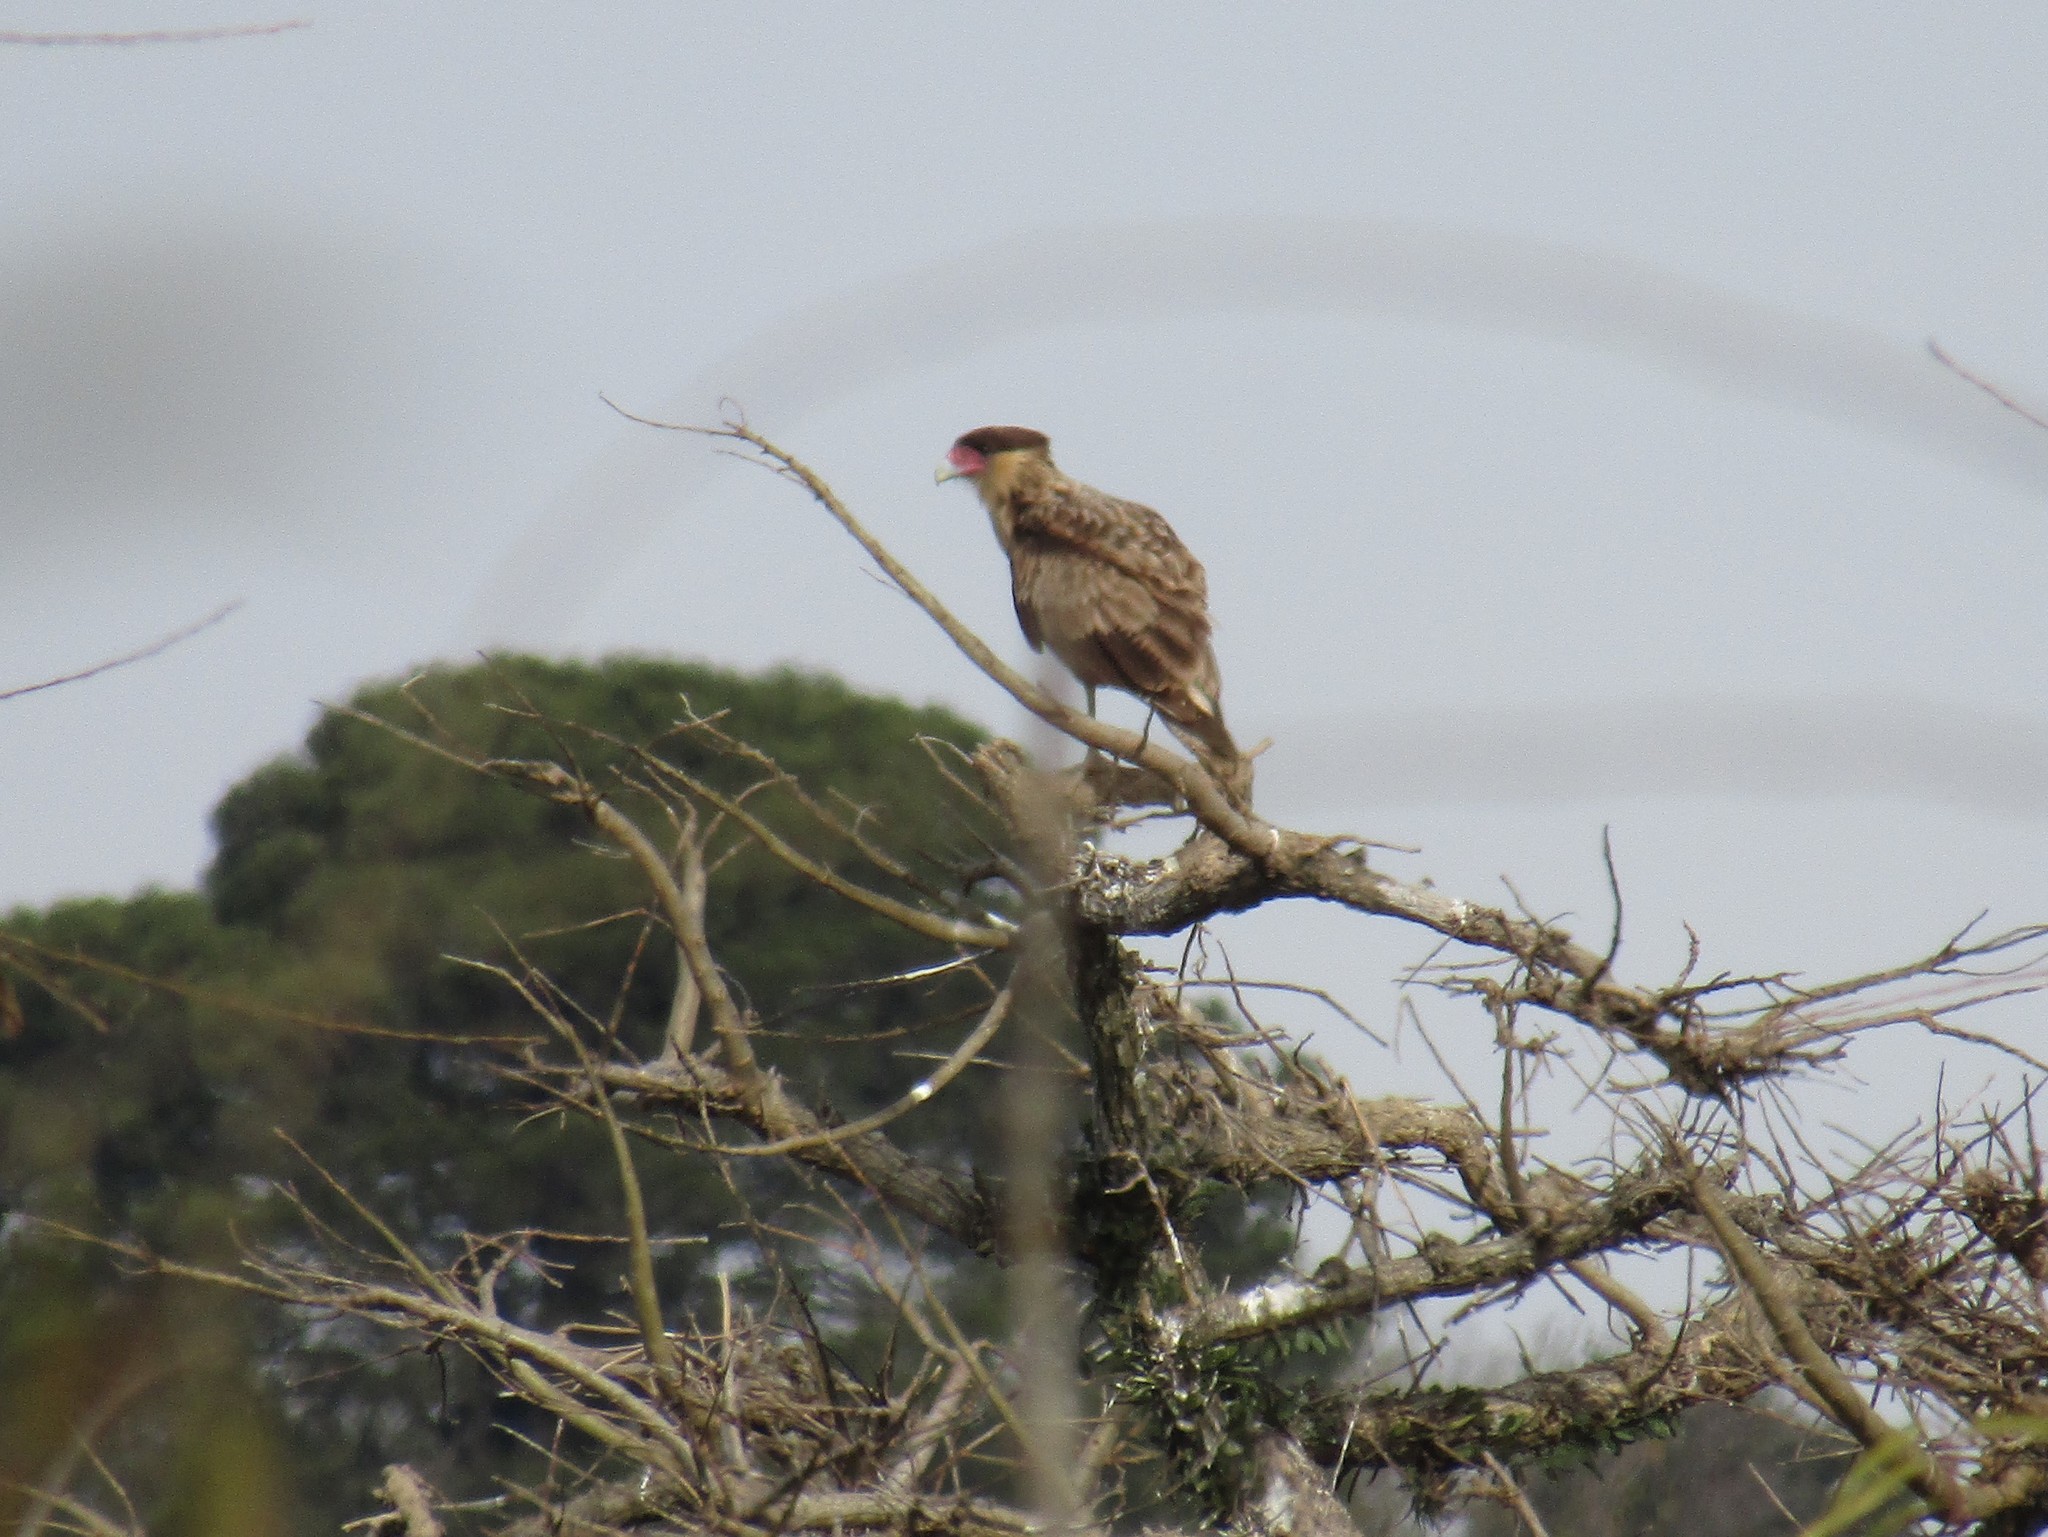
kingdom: Animalia
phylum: Chordata
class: Aves
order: Falconiformes
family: Falconidae
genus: Caracara
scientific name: Caracara plancus
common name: Southern caracara
